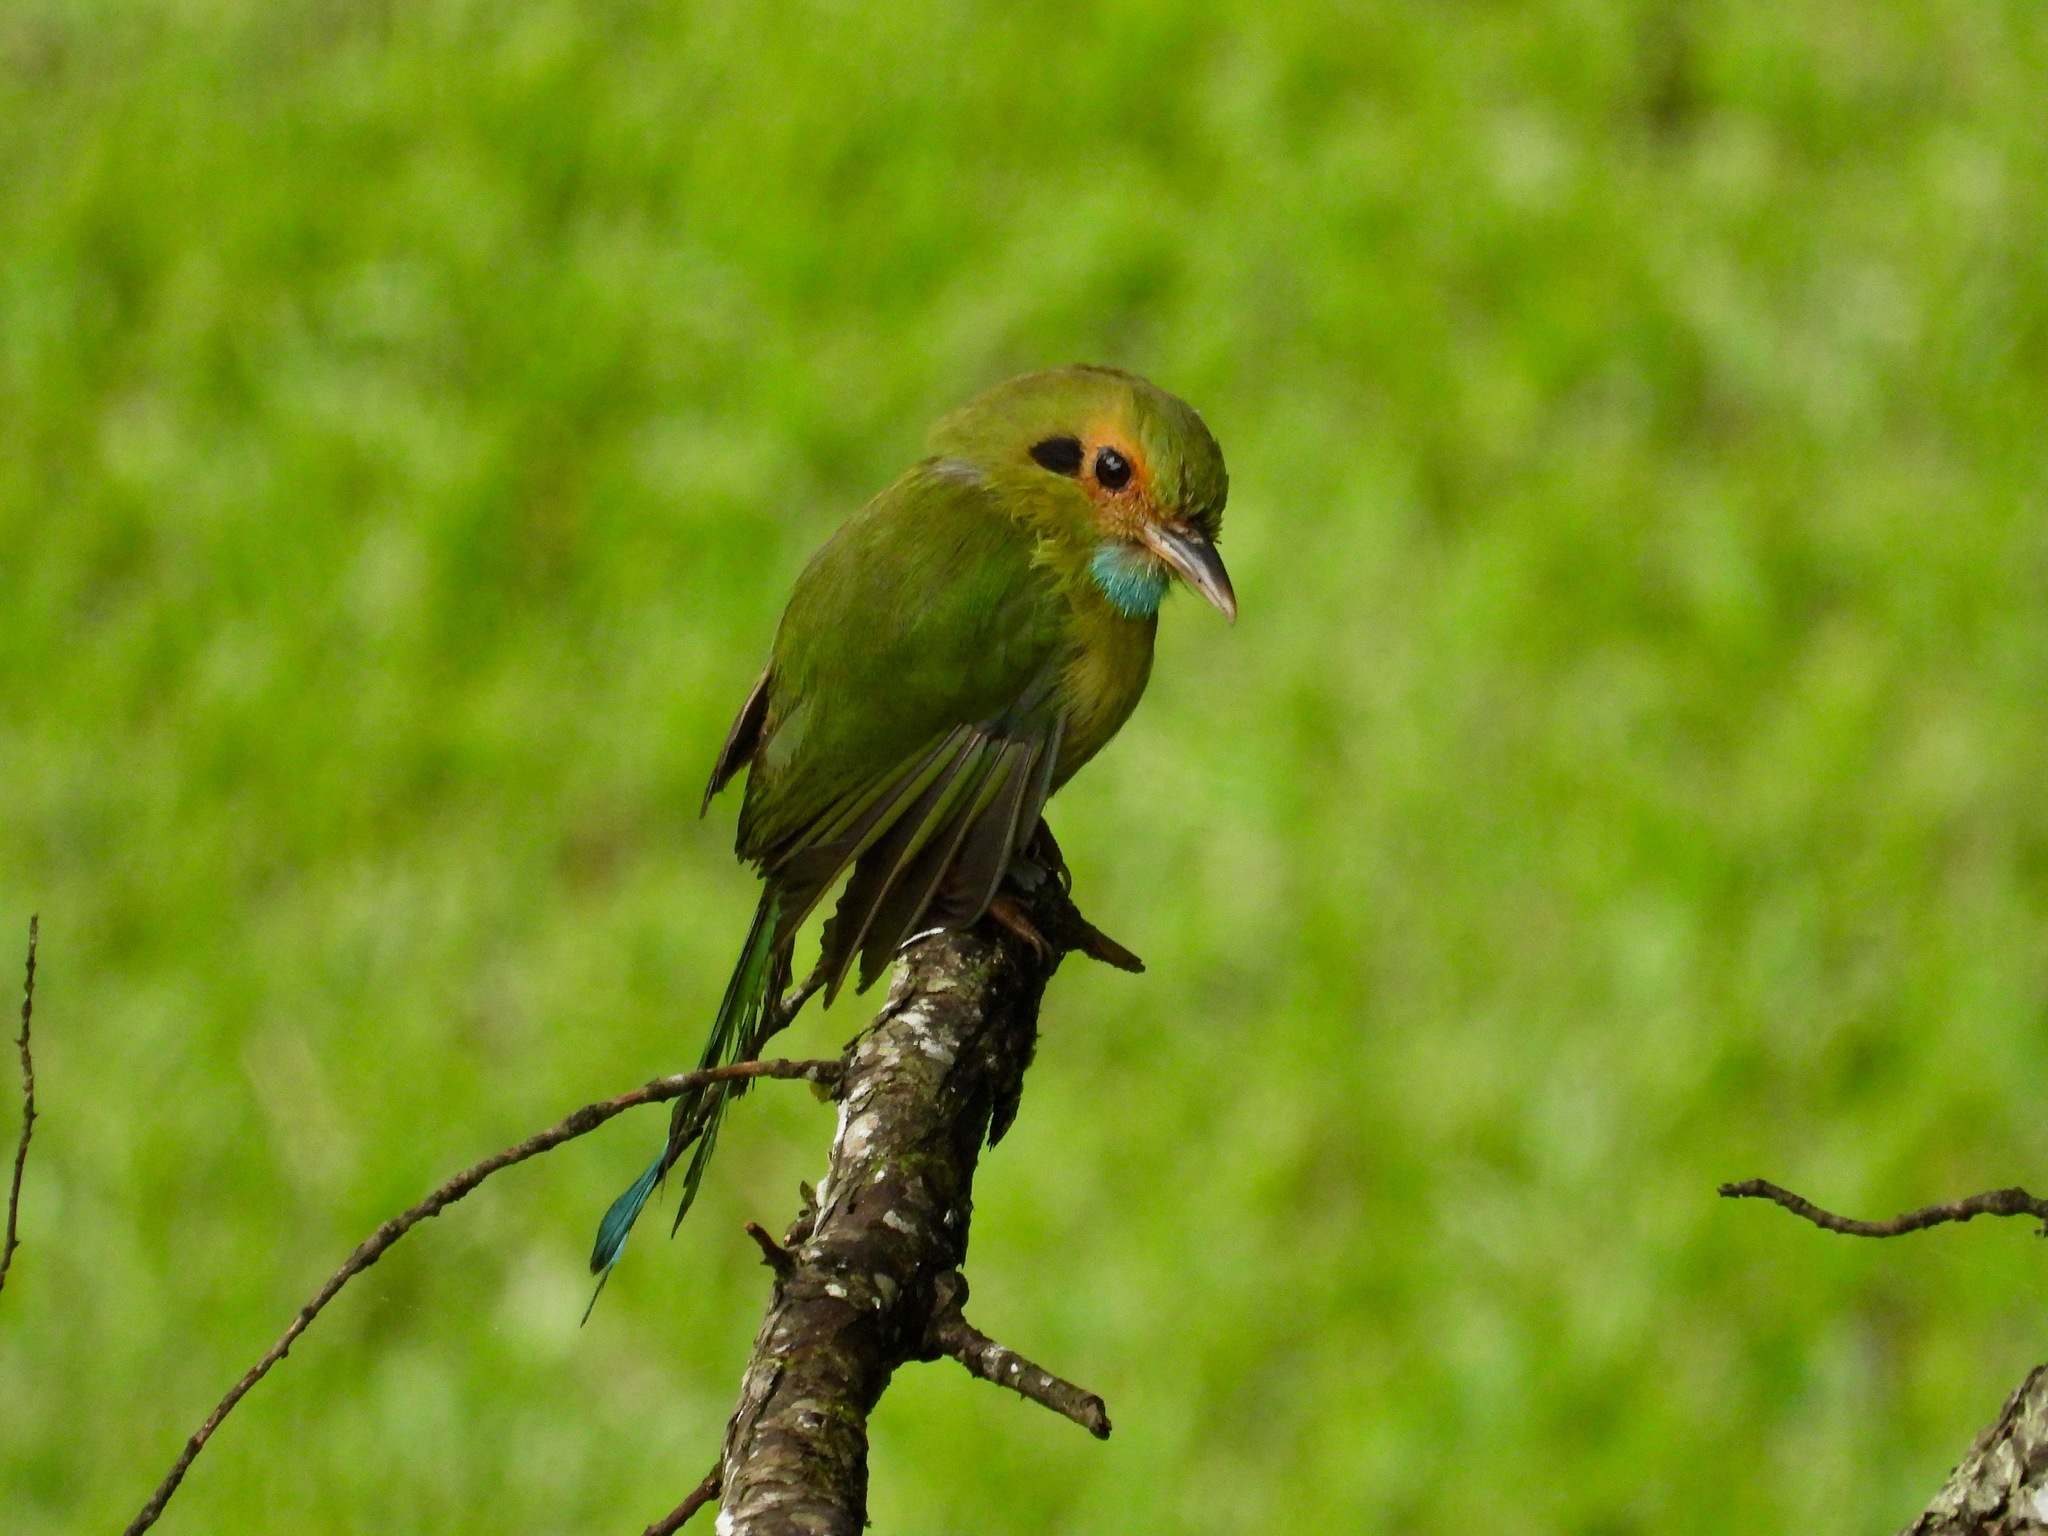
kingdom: Animalia
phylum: Chordata
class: Aves
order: Coraciiformes
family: Momotidae
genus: Aspatha
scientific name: Aspatha gularis
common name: Blue-throated motmot
